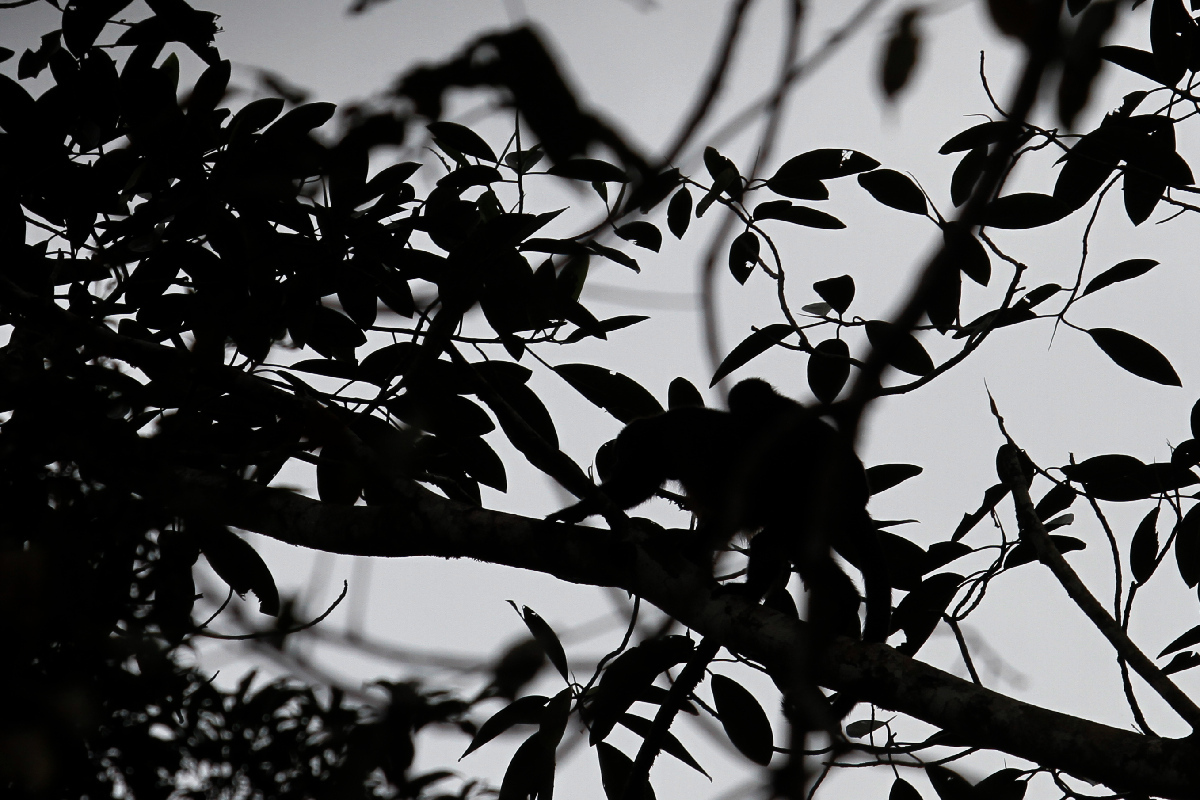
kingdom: Animalia
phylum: Chordata
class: Mammalia
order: Primates
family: Cebidae
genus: Cebus
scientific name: Cebus imitator
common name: Panamanian white-faced capuchin
